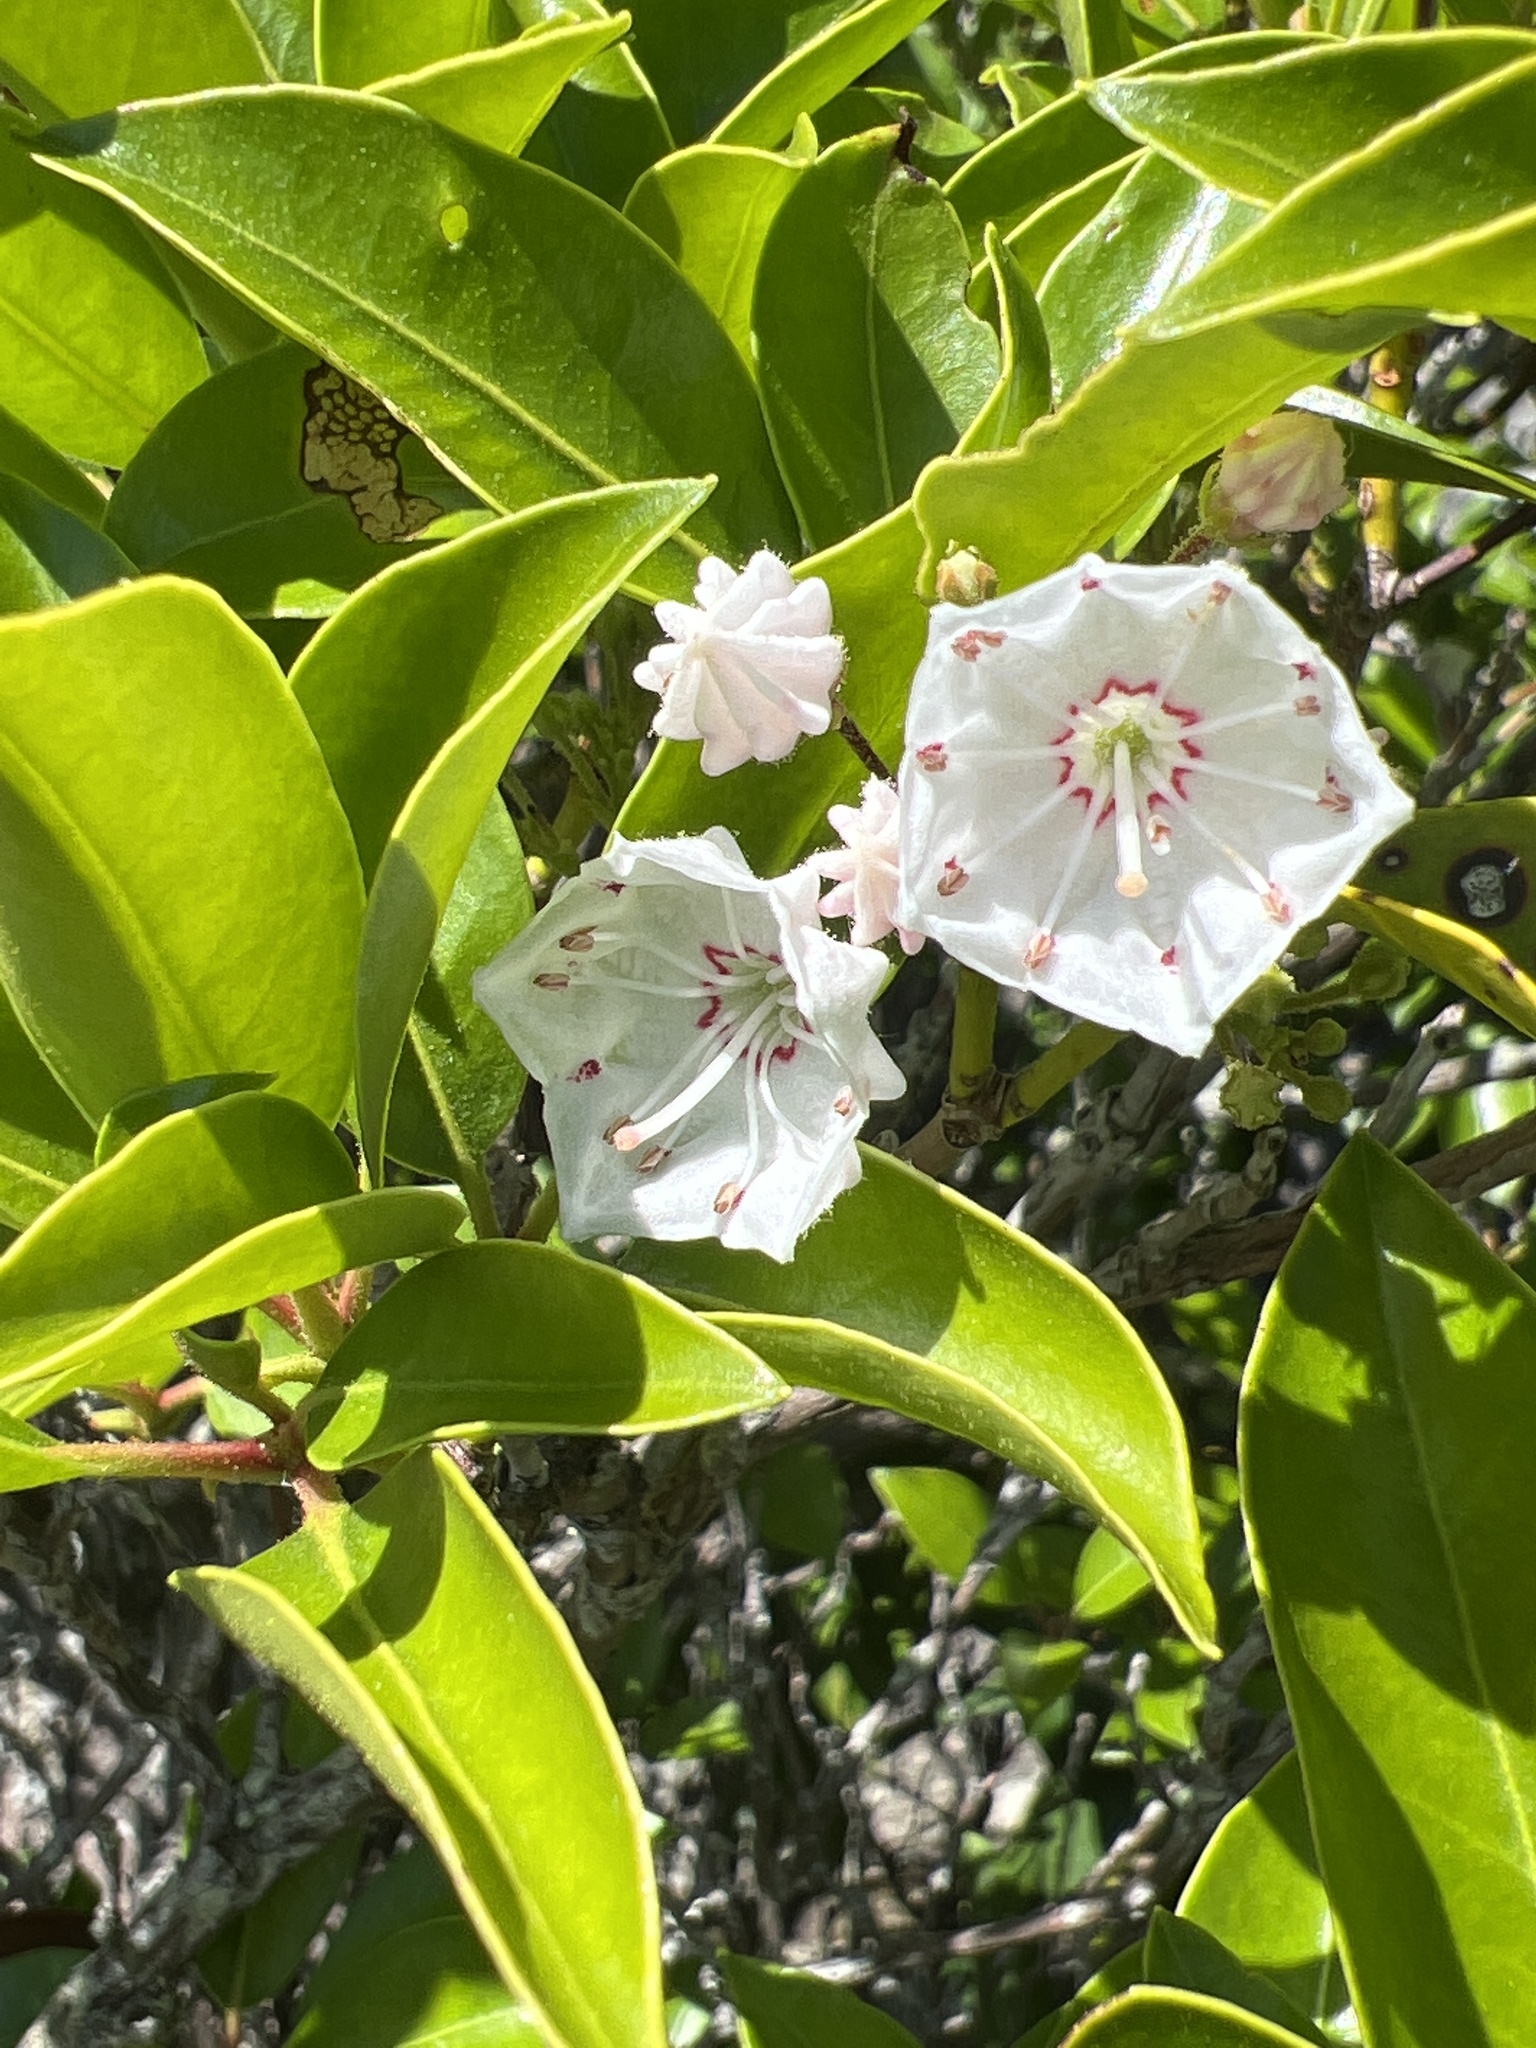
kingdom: Plantae
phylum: Tracheophyta
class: Magnoliopsida
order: Ericales
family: Ericaceae
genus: Kalmia
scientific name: Kalmia latifolia
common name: Mountain-laurel
